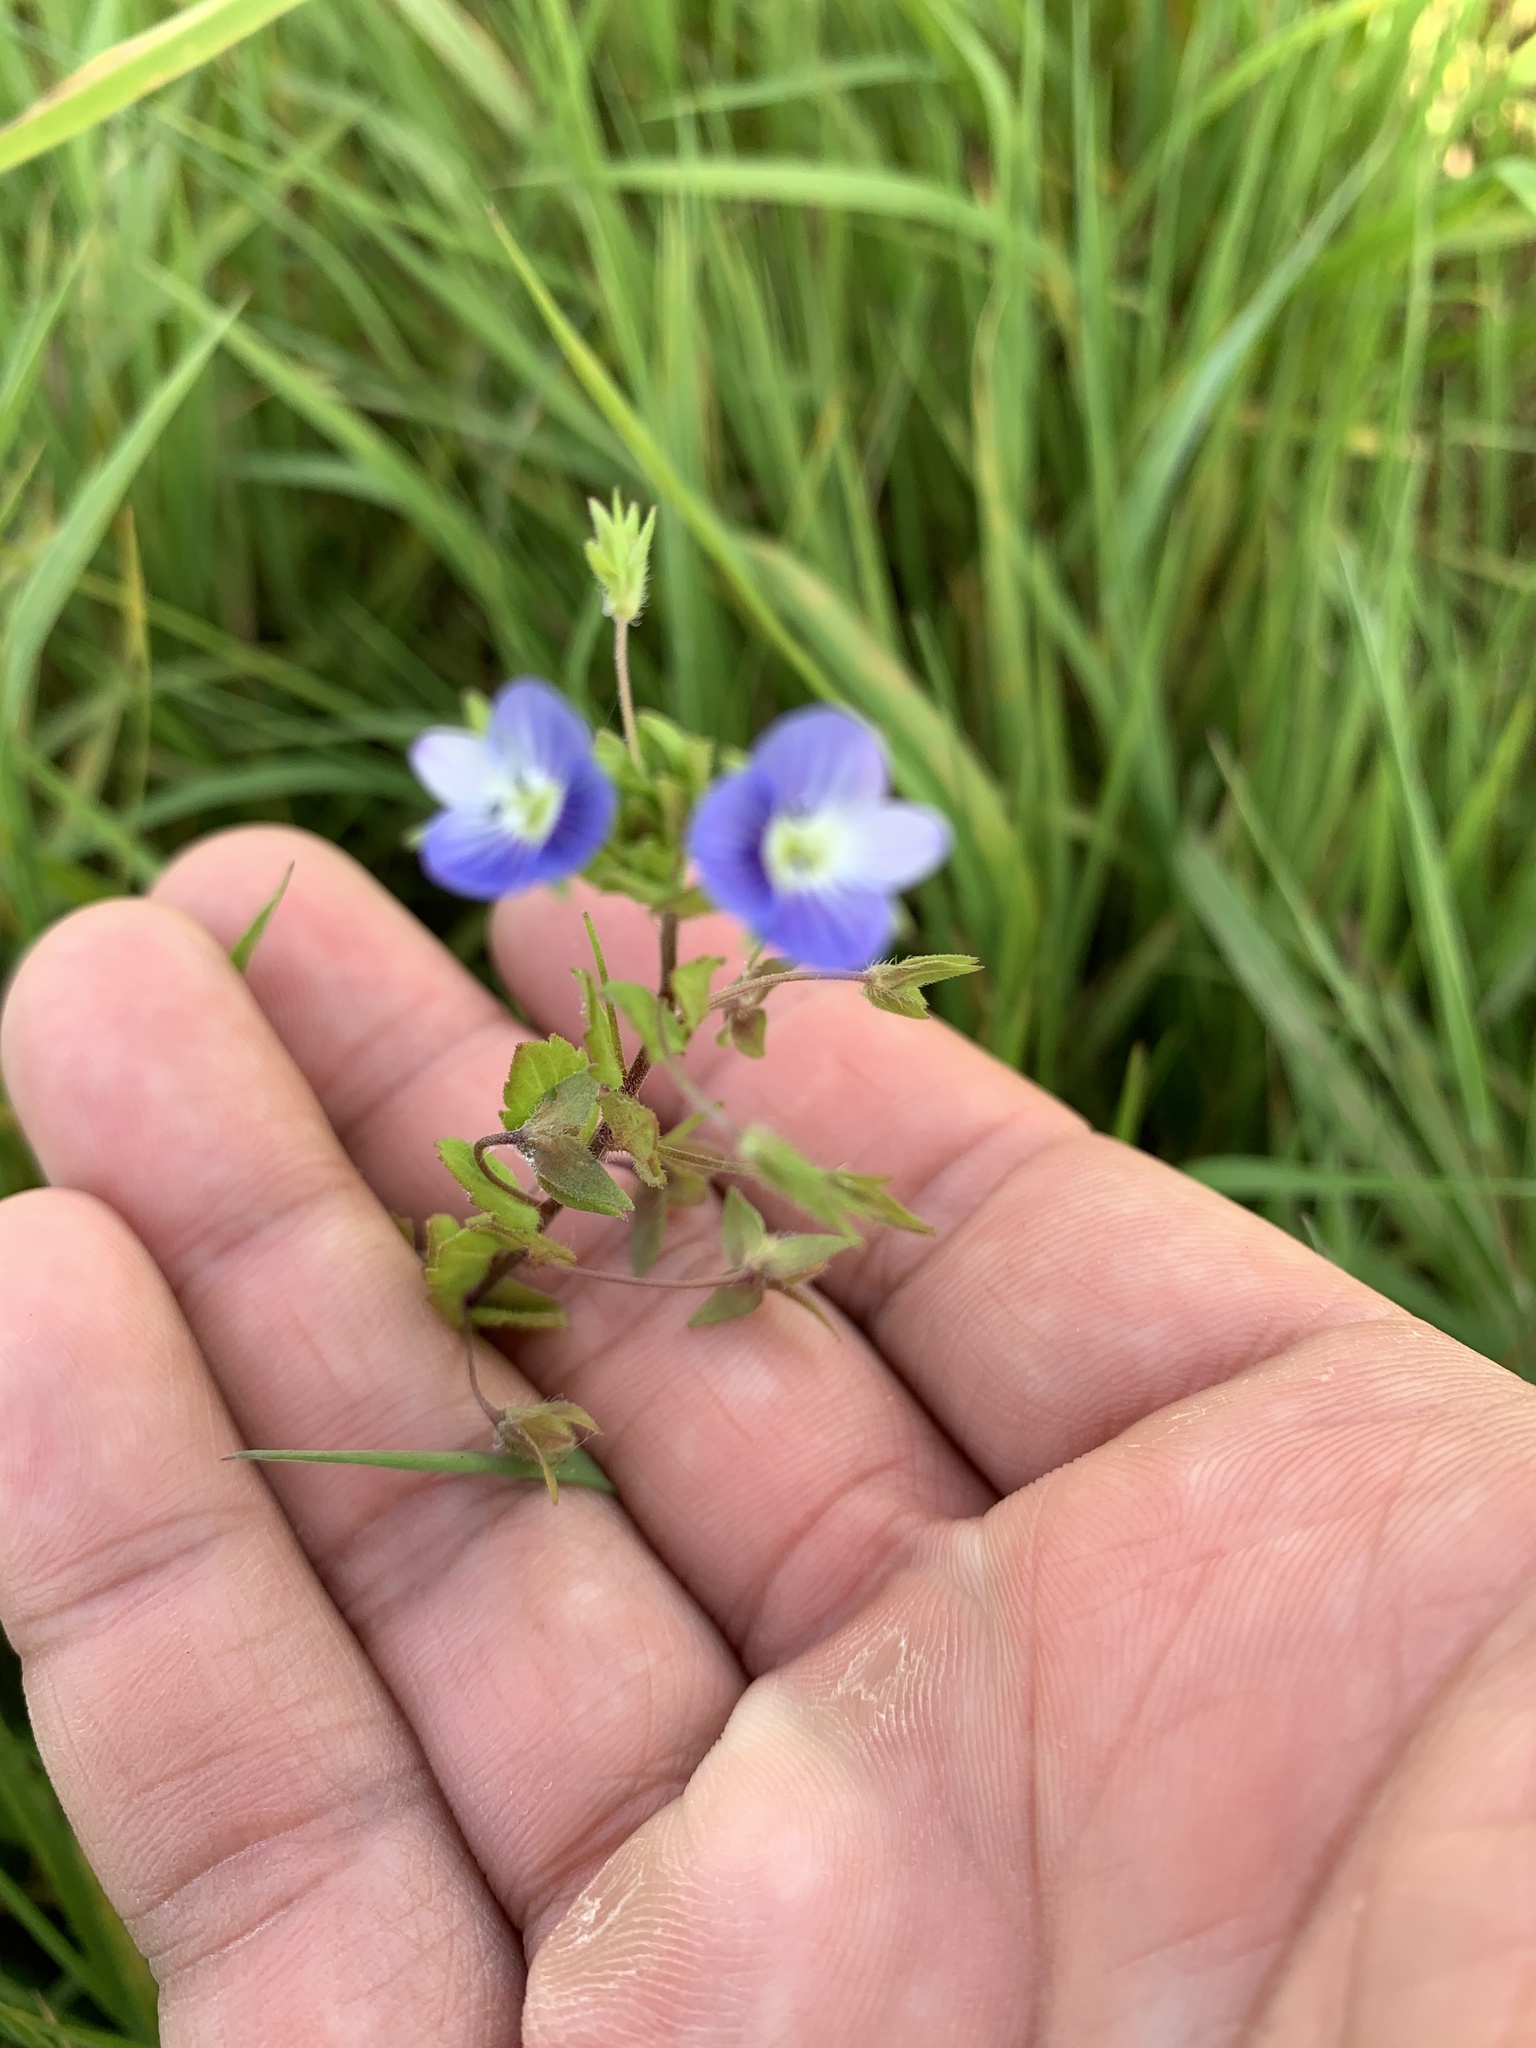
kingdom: Plantae
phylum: Tracheophyta
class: Magnoliopsida
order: Lamiales
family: Plantaginaceae
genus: Veronica
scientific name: Veronica persica
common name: Common field-speedwell
